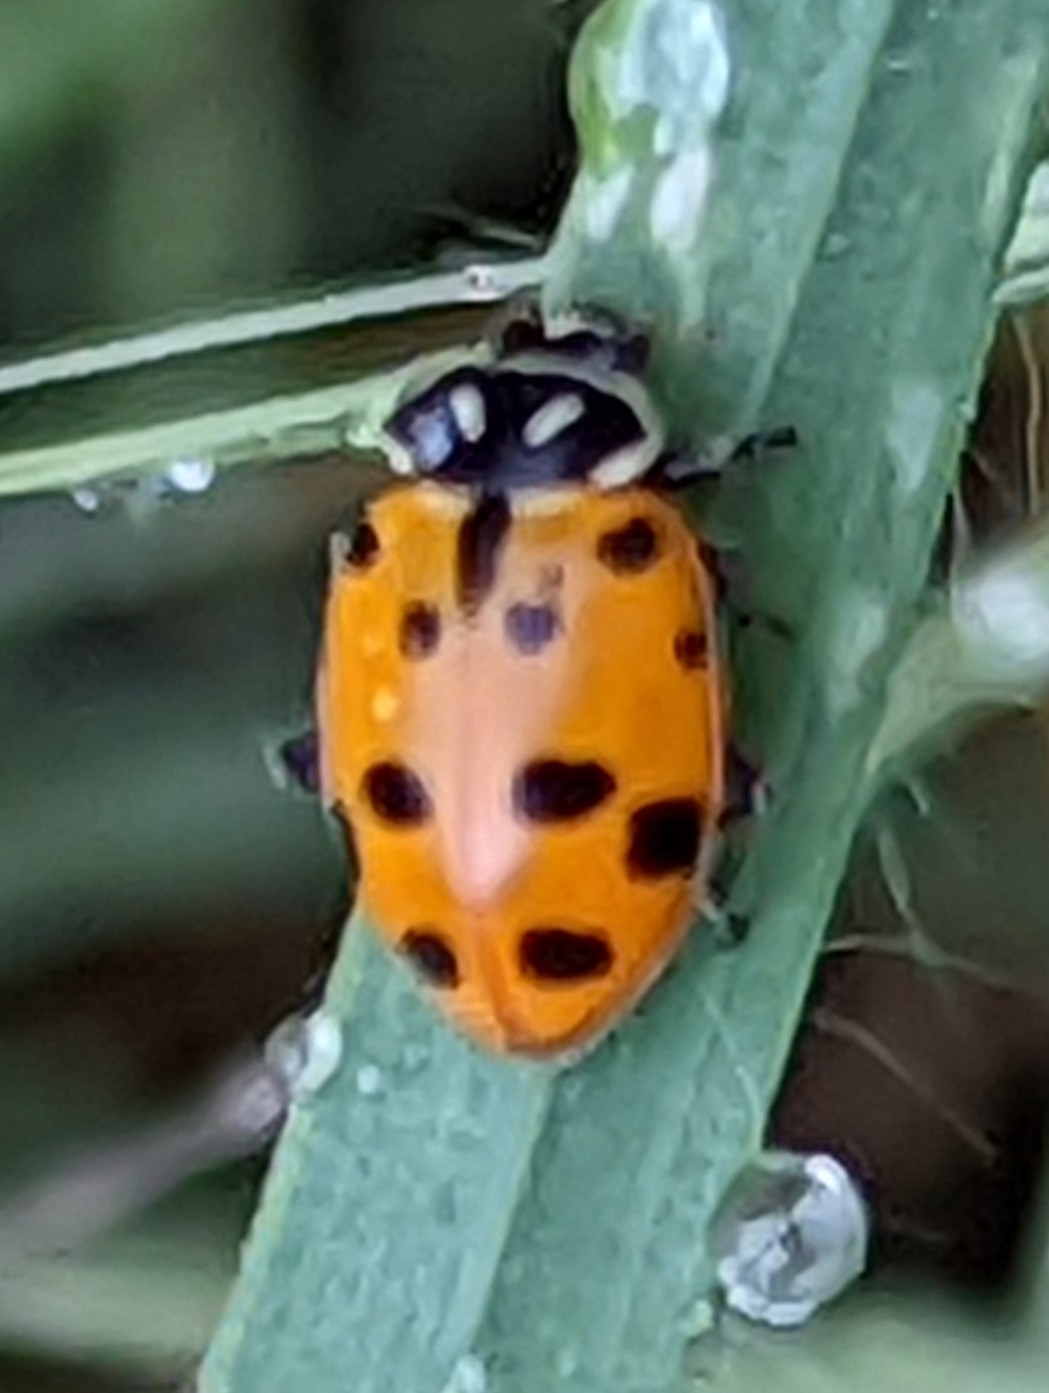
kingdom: Animalia
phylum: Arthropoda
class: Insecta
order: Coleoptera
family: Coccinellidae
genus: Hippodamia
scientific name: Hippodamia convergens
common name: Convergent lady beetle
